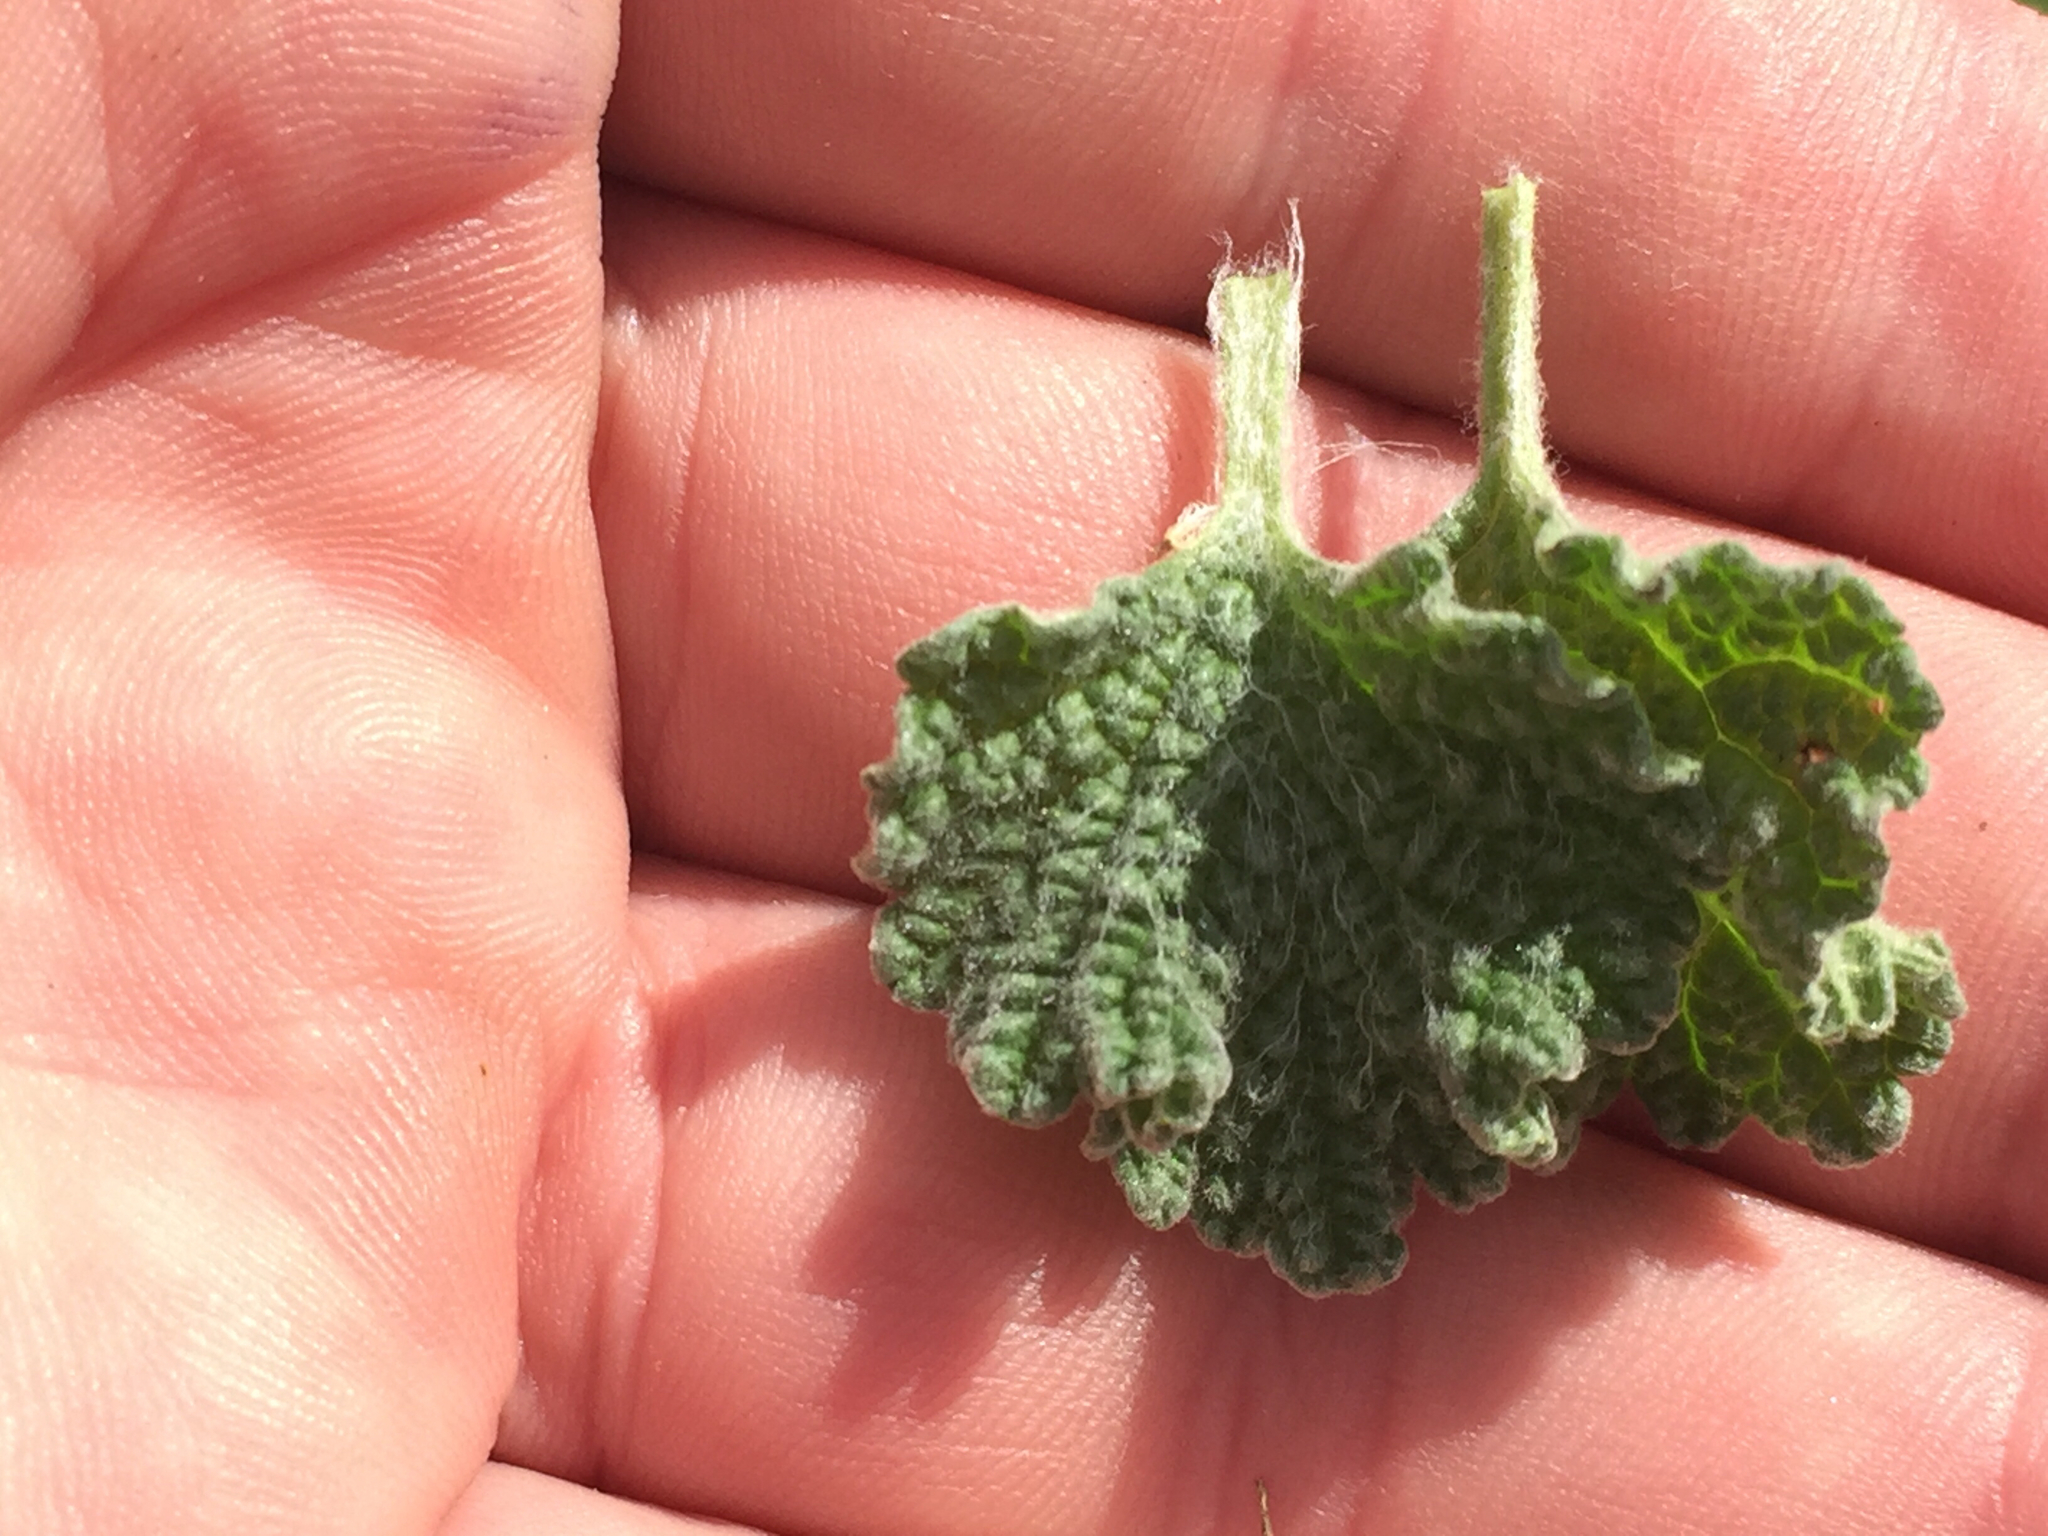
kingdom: Plantae
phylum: Tracheophyta
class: Magnoliopsida
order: Lamiales
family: Lamiaceae
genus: Marrubium
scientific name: Marrubium vulgare
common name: Horehound
